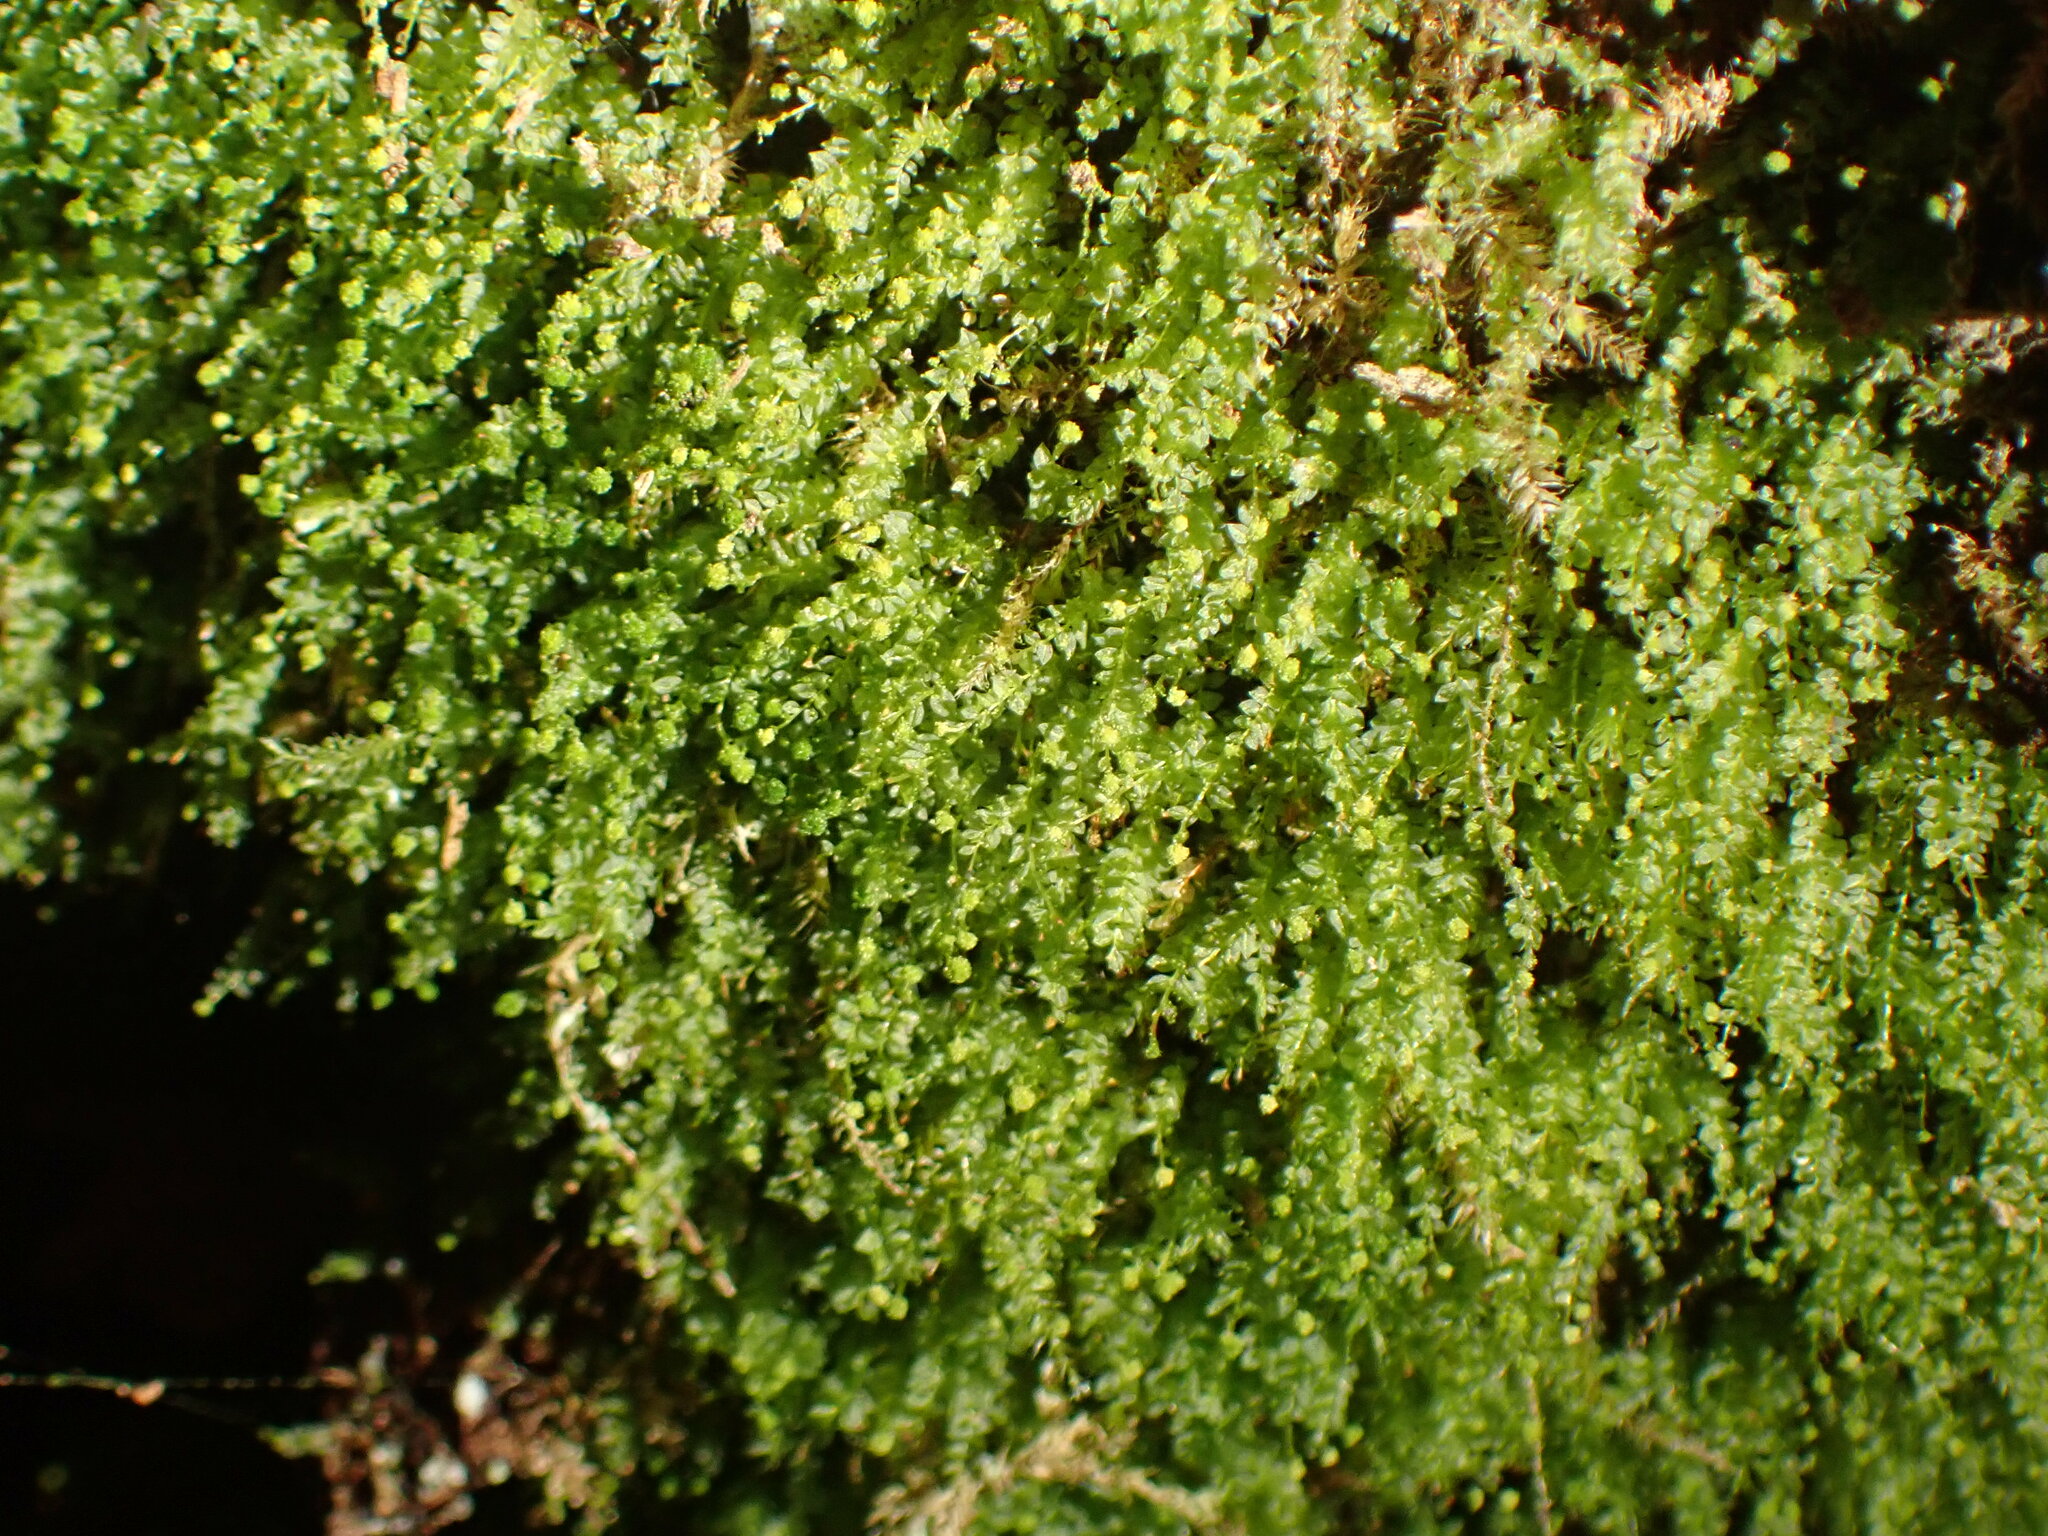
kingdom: Plantae
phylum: Bryophyta
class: Polytrichopsida
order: Tetraphidales
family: Tetraphidaceae
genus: Tetraphis
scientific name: Tetraphis pellucida
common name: Common four-toothed moss
